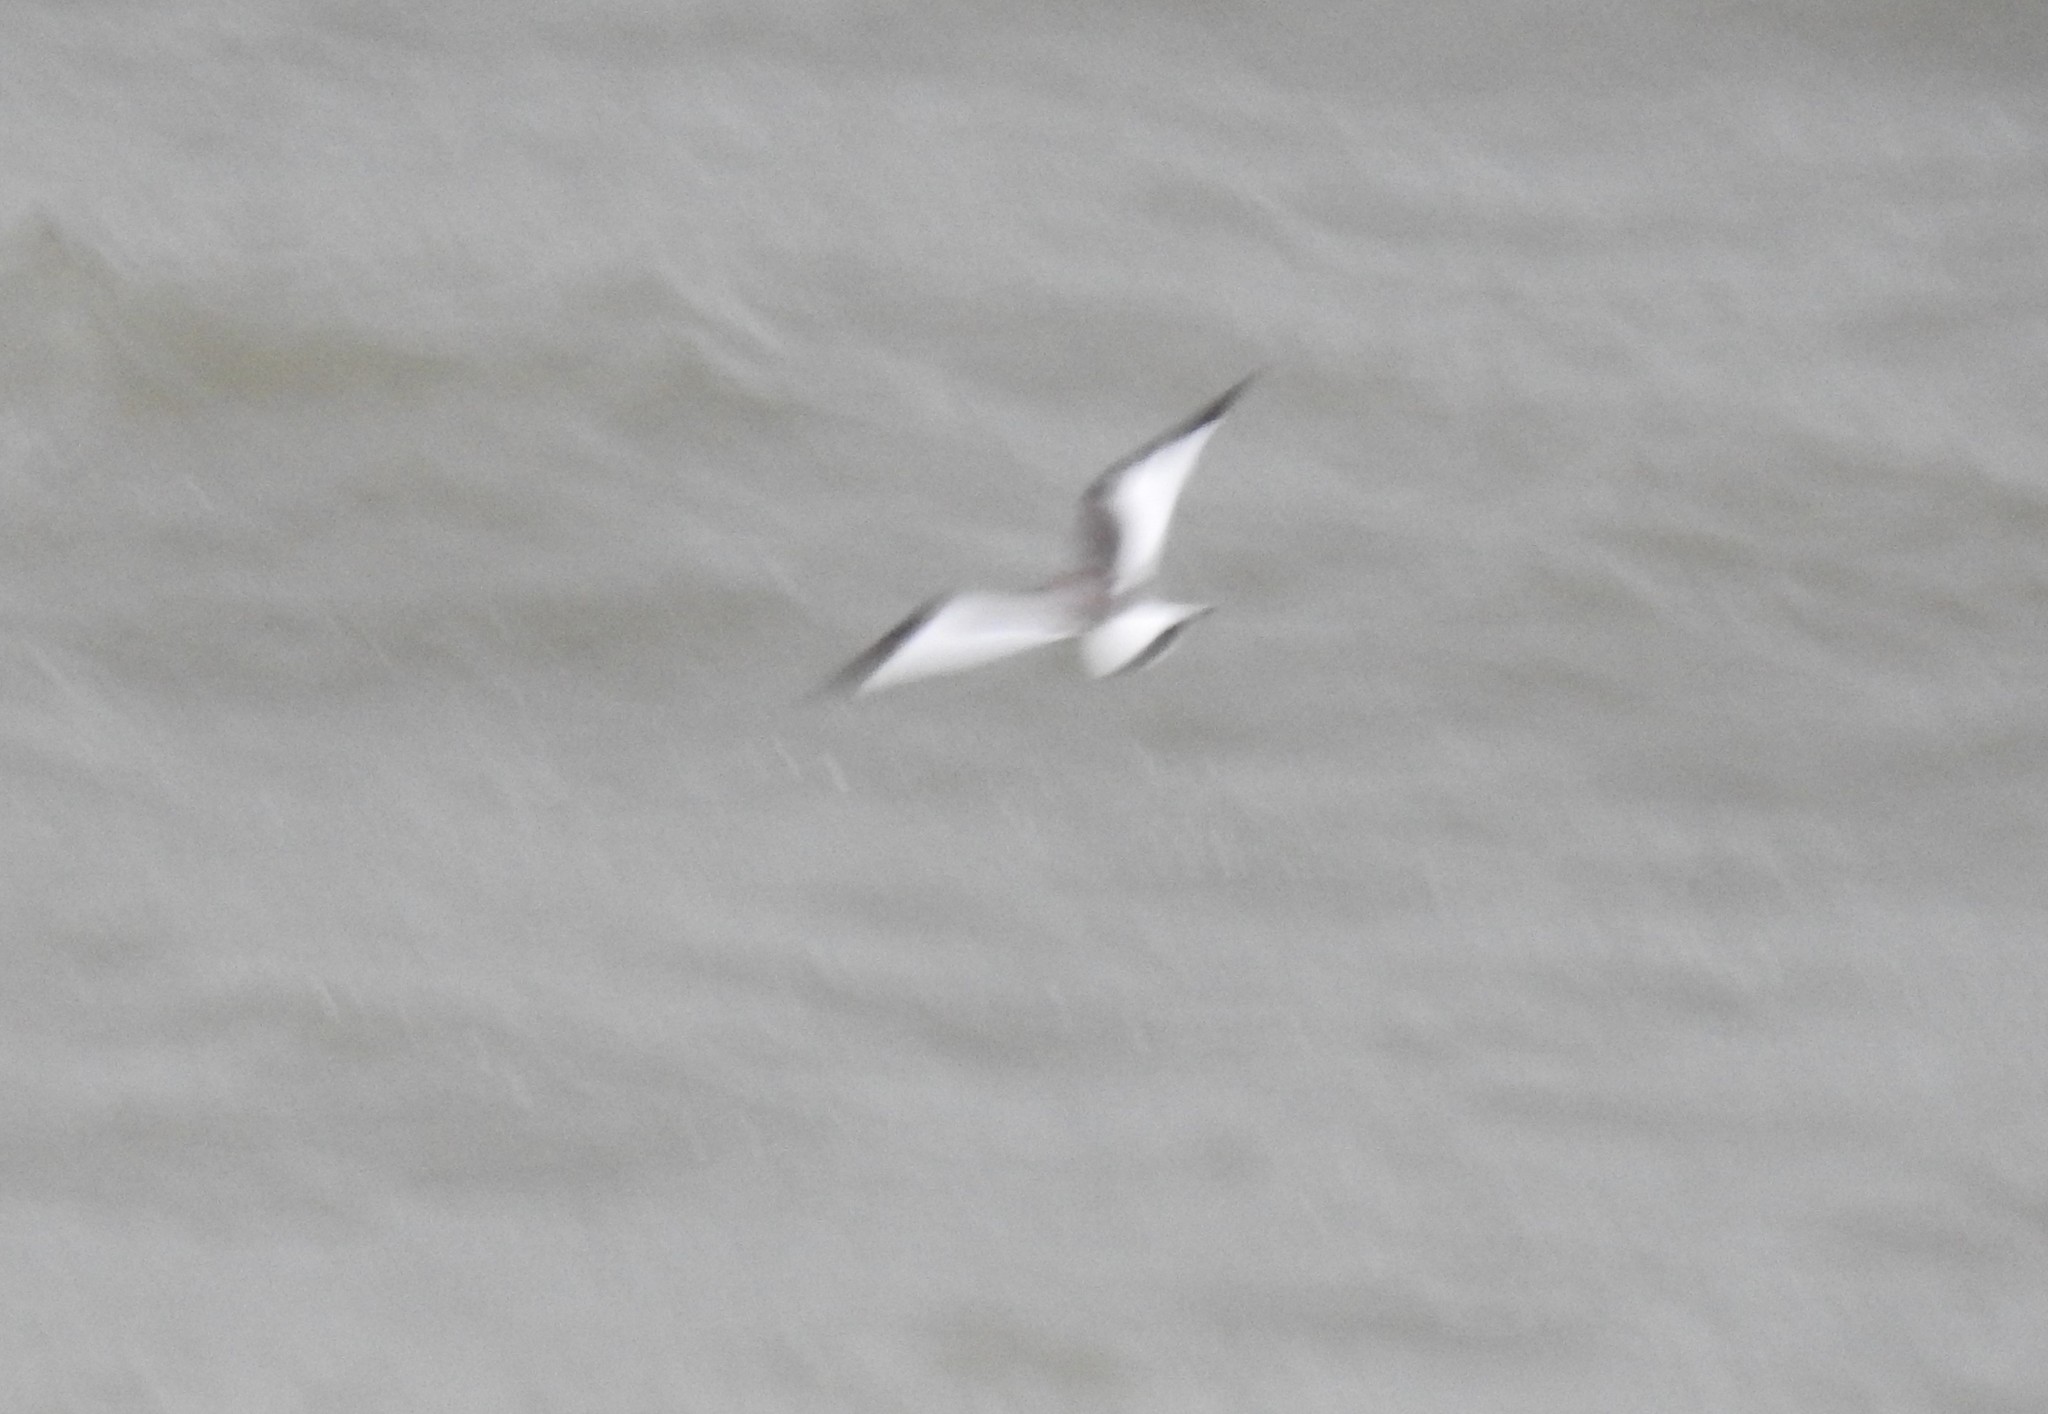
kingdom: Animalia
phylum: Chordata
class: Aves
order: Charadriiformes
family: Laridae
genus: Xema
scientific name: Xema sabini
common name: Sabine's gull
